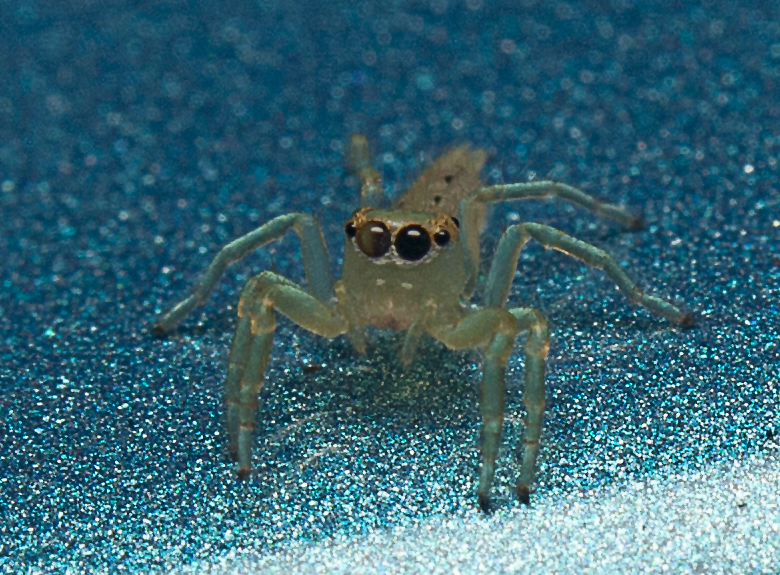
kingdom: Animalia
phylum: Arthropoda
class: Arachnida
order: Araneae
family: Salticidae
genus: Mopsus
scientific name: Mopsus mormon
